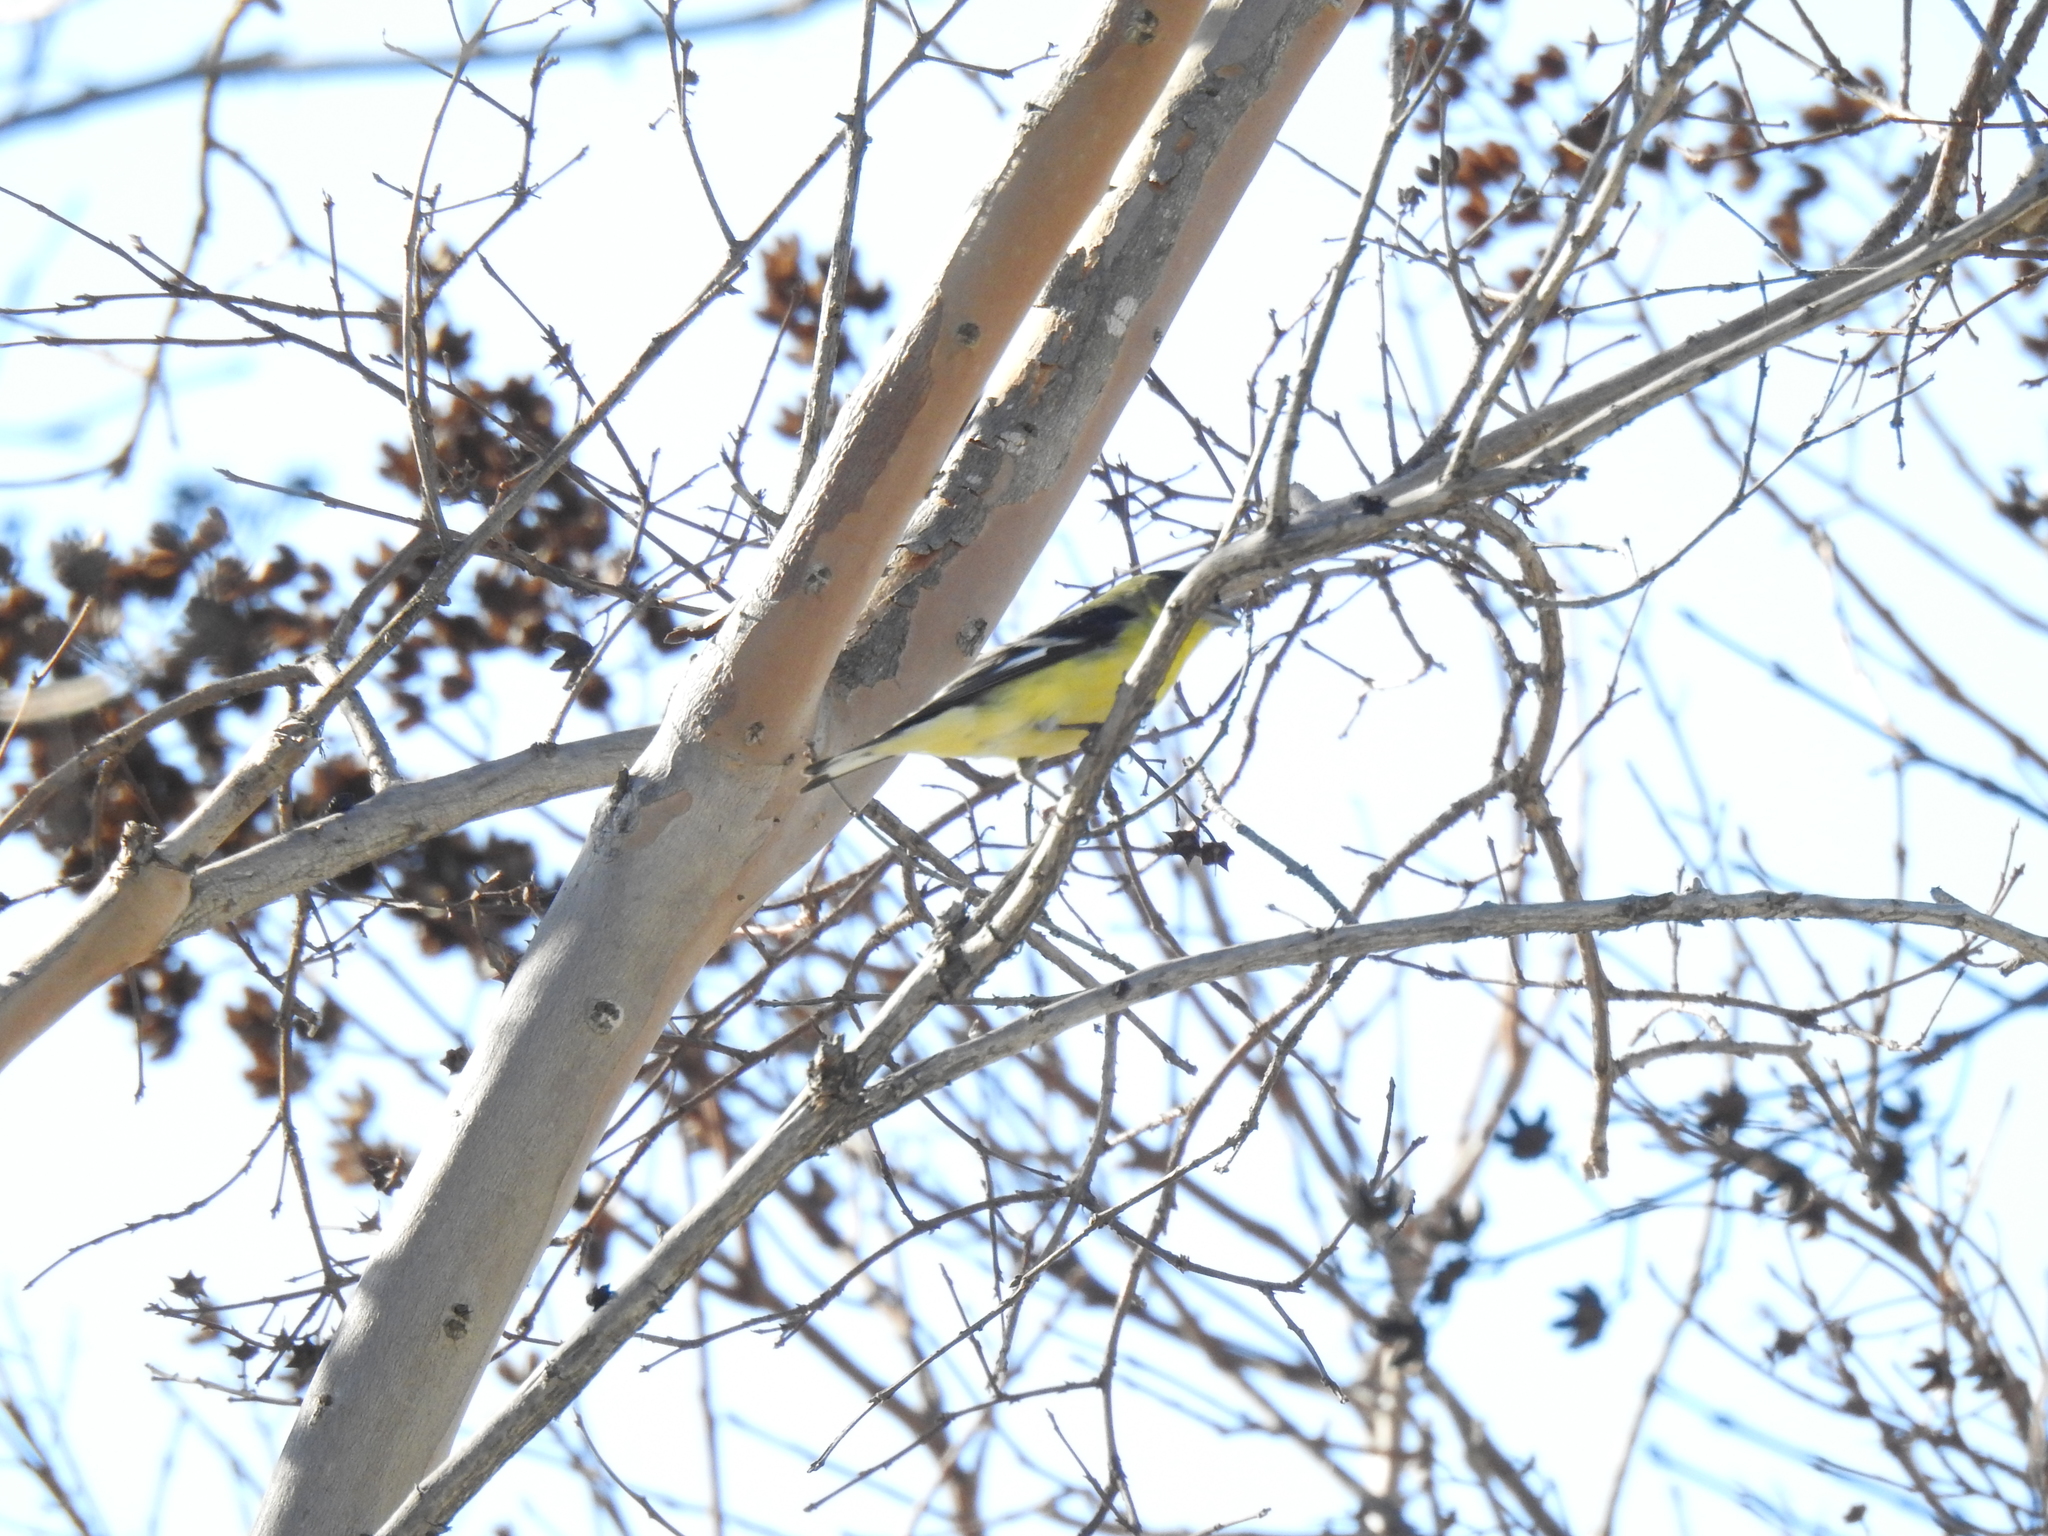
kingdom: Animalia
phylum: Chordata
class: Aves
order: Passeriformes
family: Fringillidae
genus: Spinus
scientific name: Spinus psaltria
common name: Lesser goldfinch
